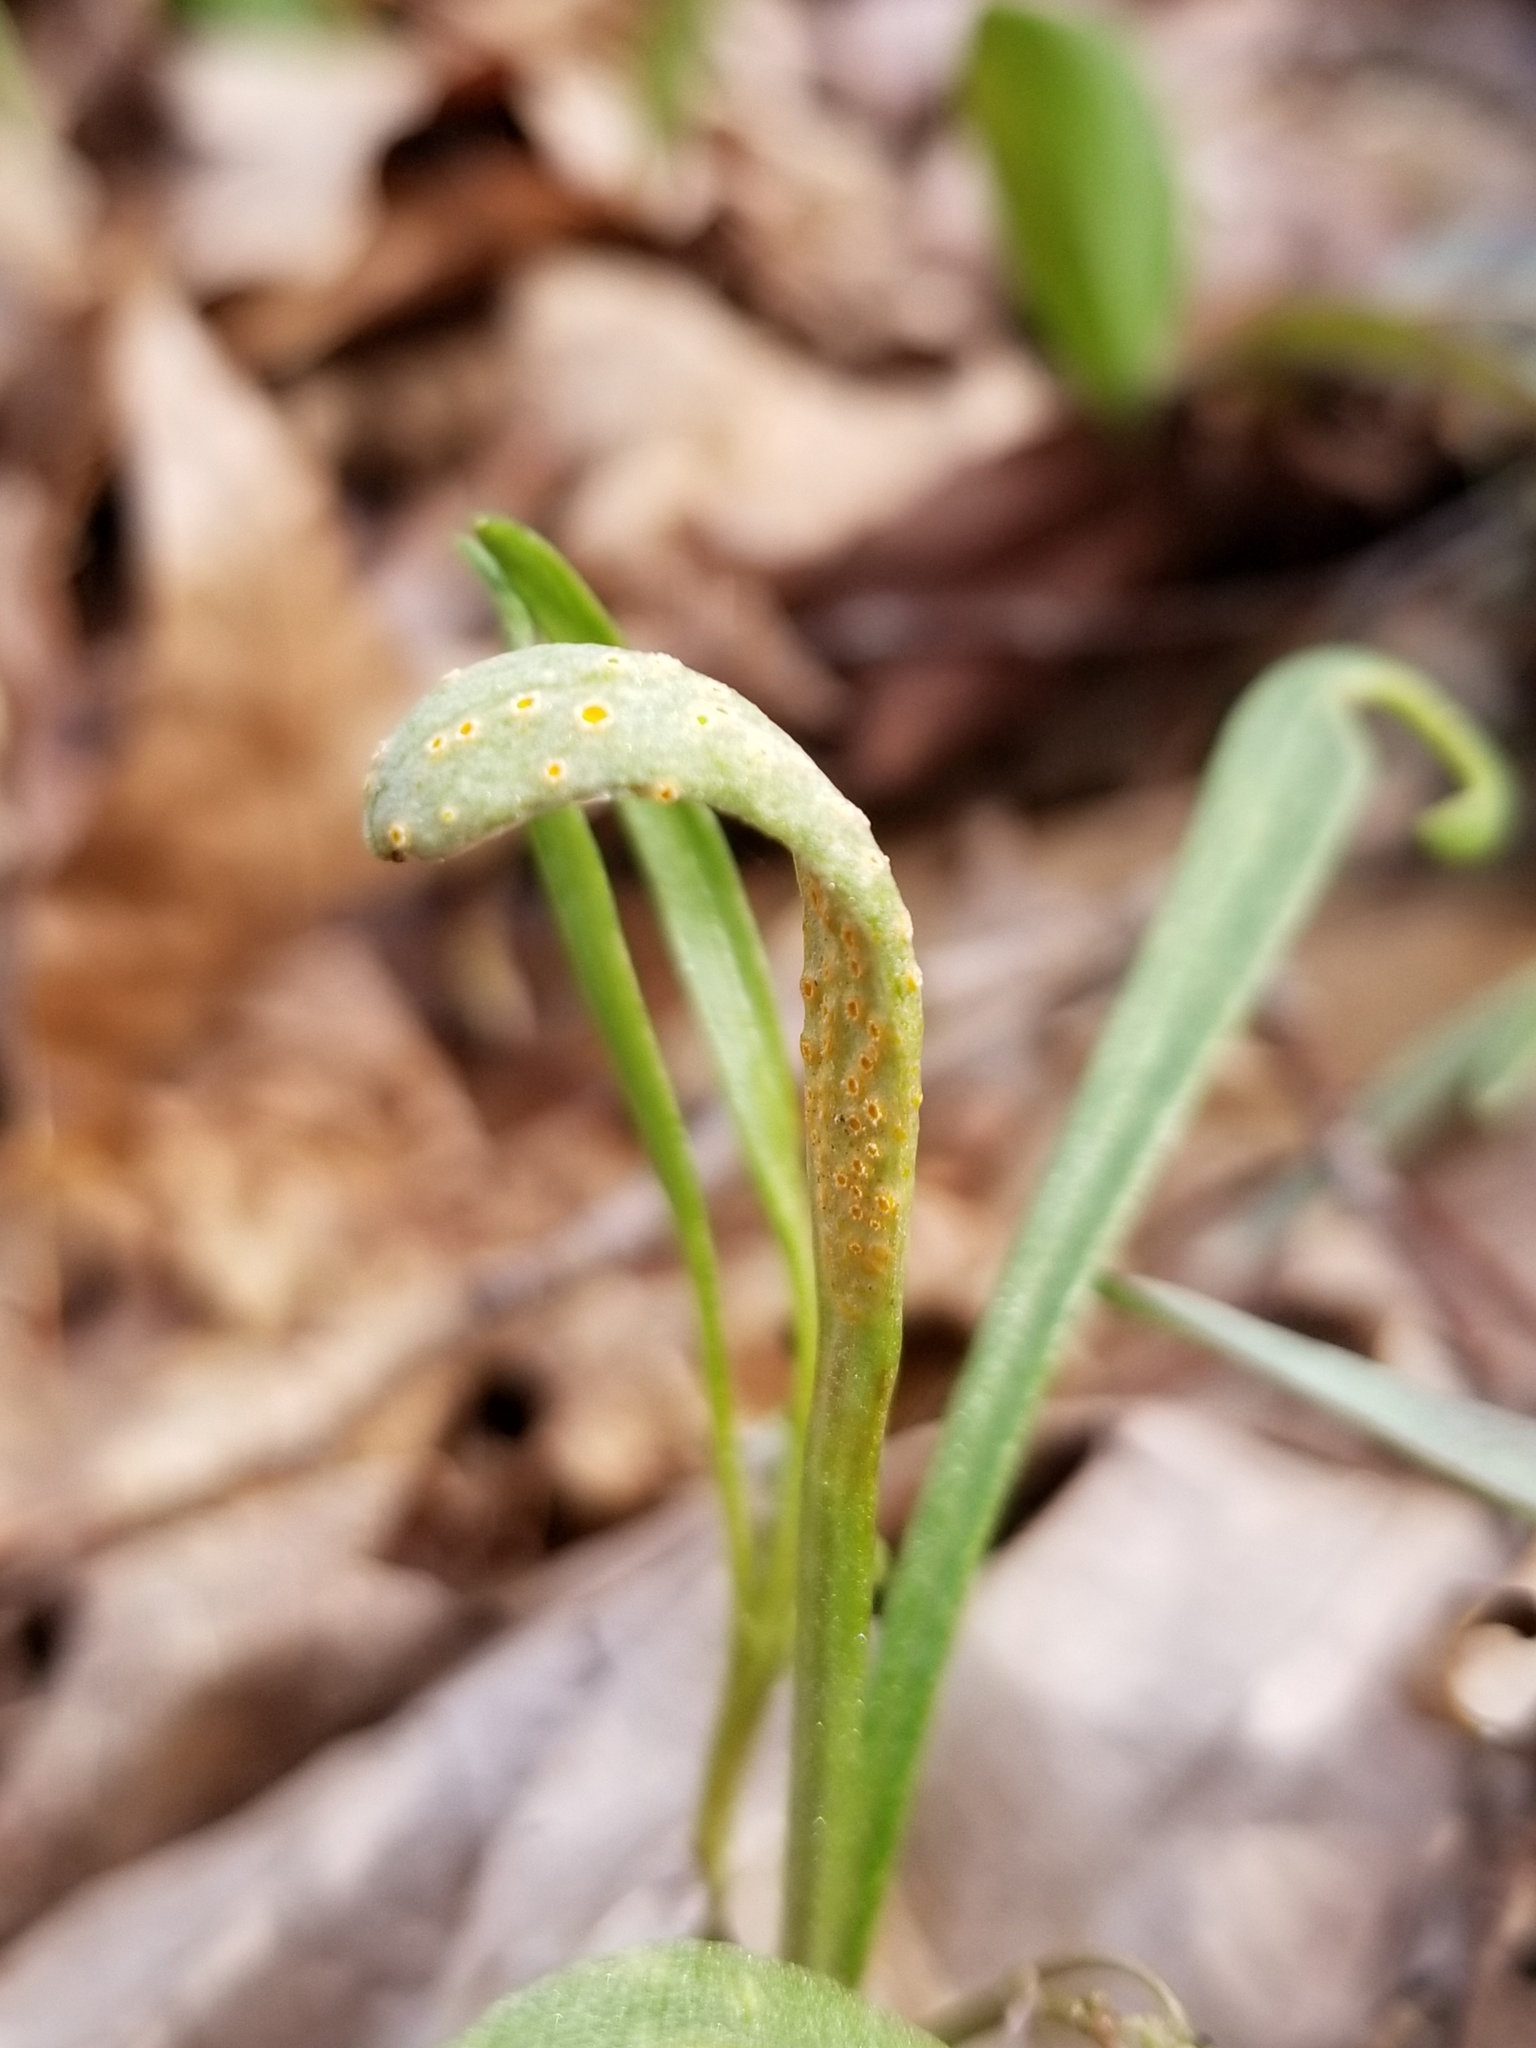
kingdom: Fungi
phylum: Basidiomycota
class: Pucciniomycetes
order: Pucciniales
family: Pucciniaceae
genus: Puccinia
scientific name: Puccinia mariae-wilsoniae
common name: Spring beauty rust
